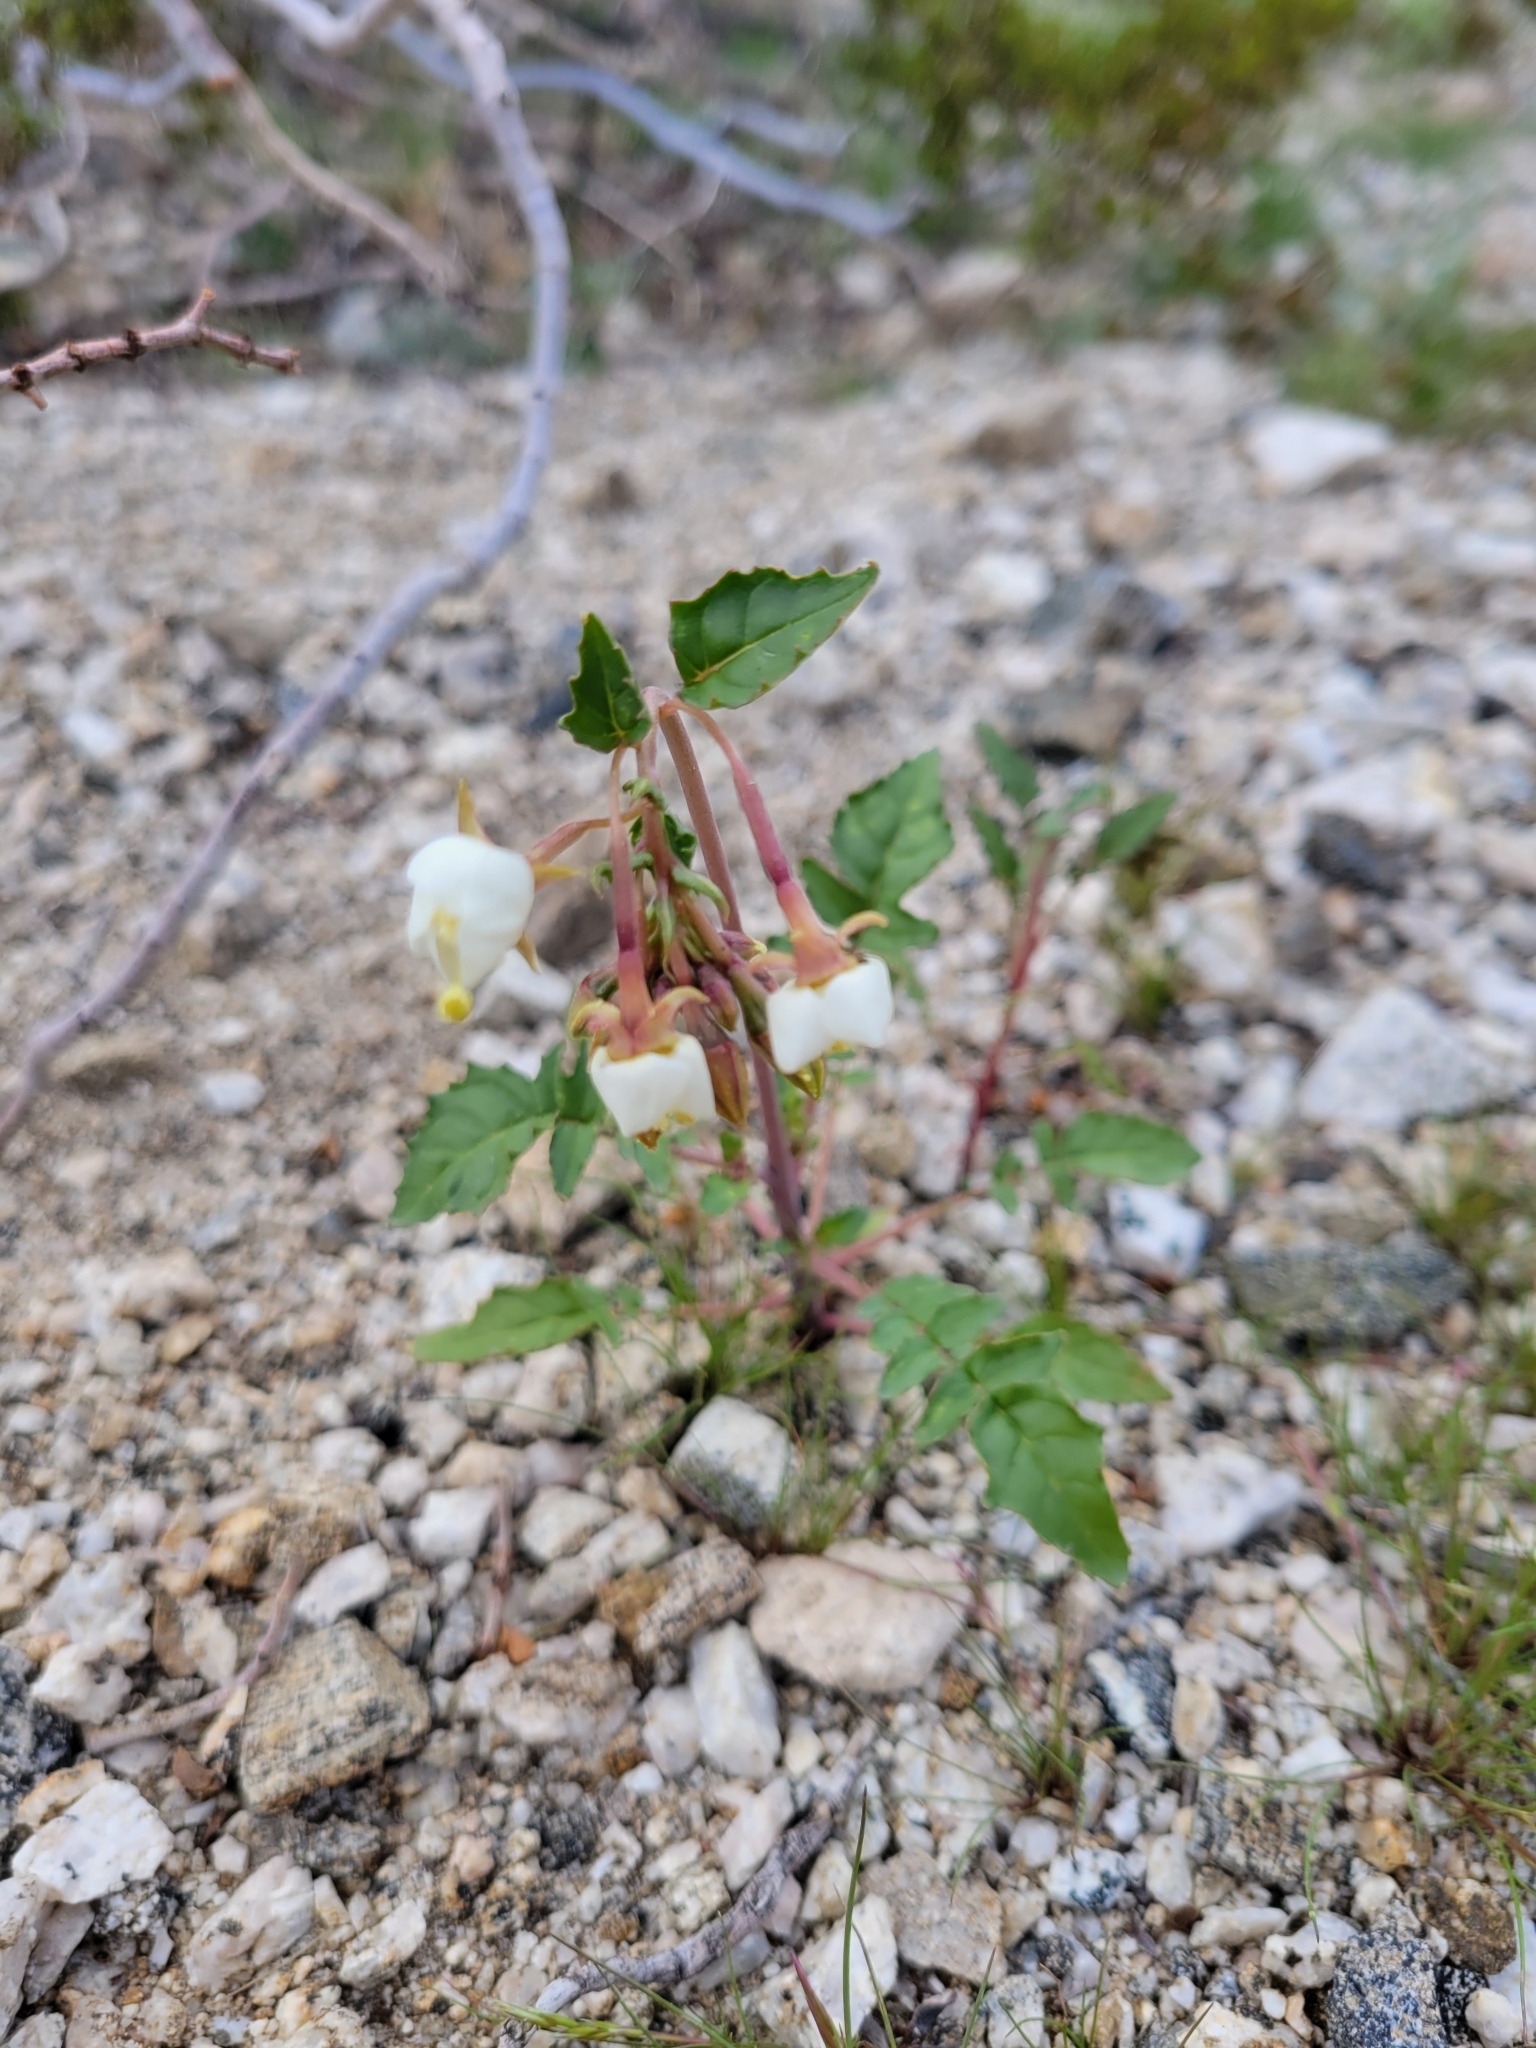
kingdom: Plantae
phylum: Tracheophyta
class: Magnoliopsida
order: Myrtales
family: Onagraceae
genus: Chylismia
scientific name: Chylismia claviformis
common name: Browneyes
